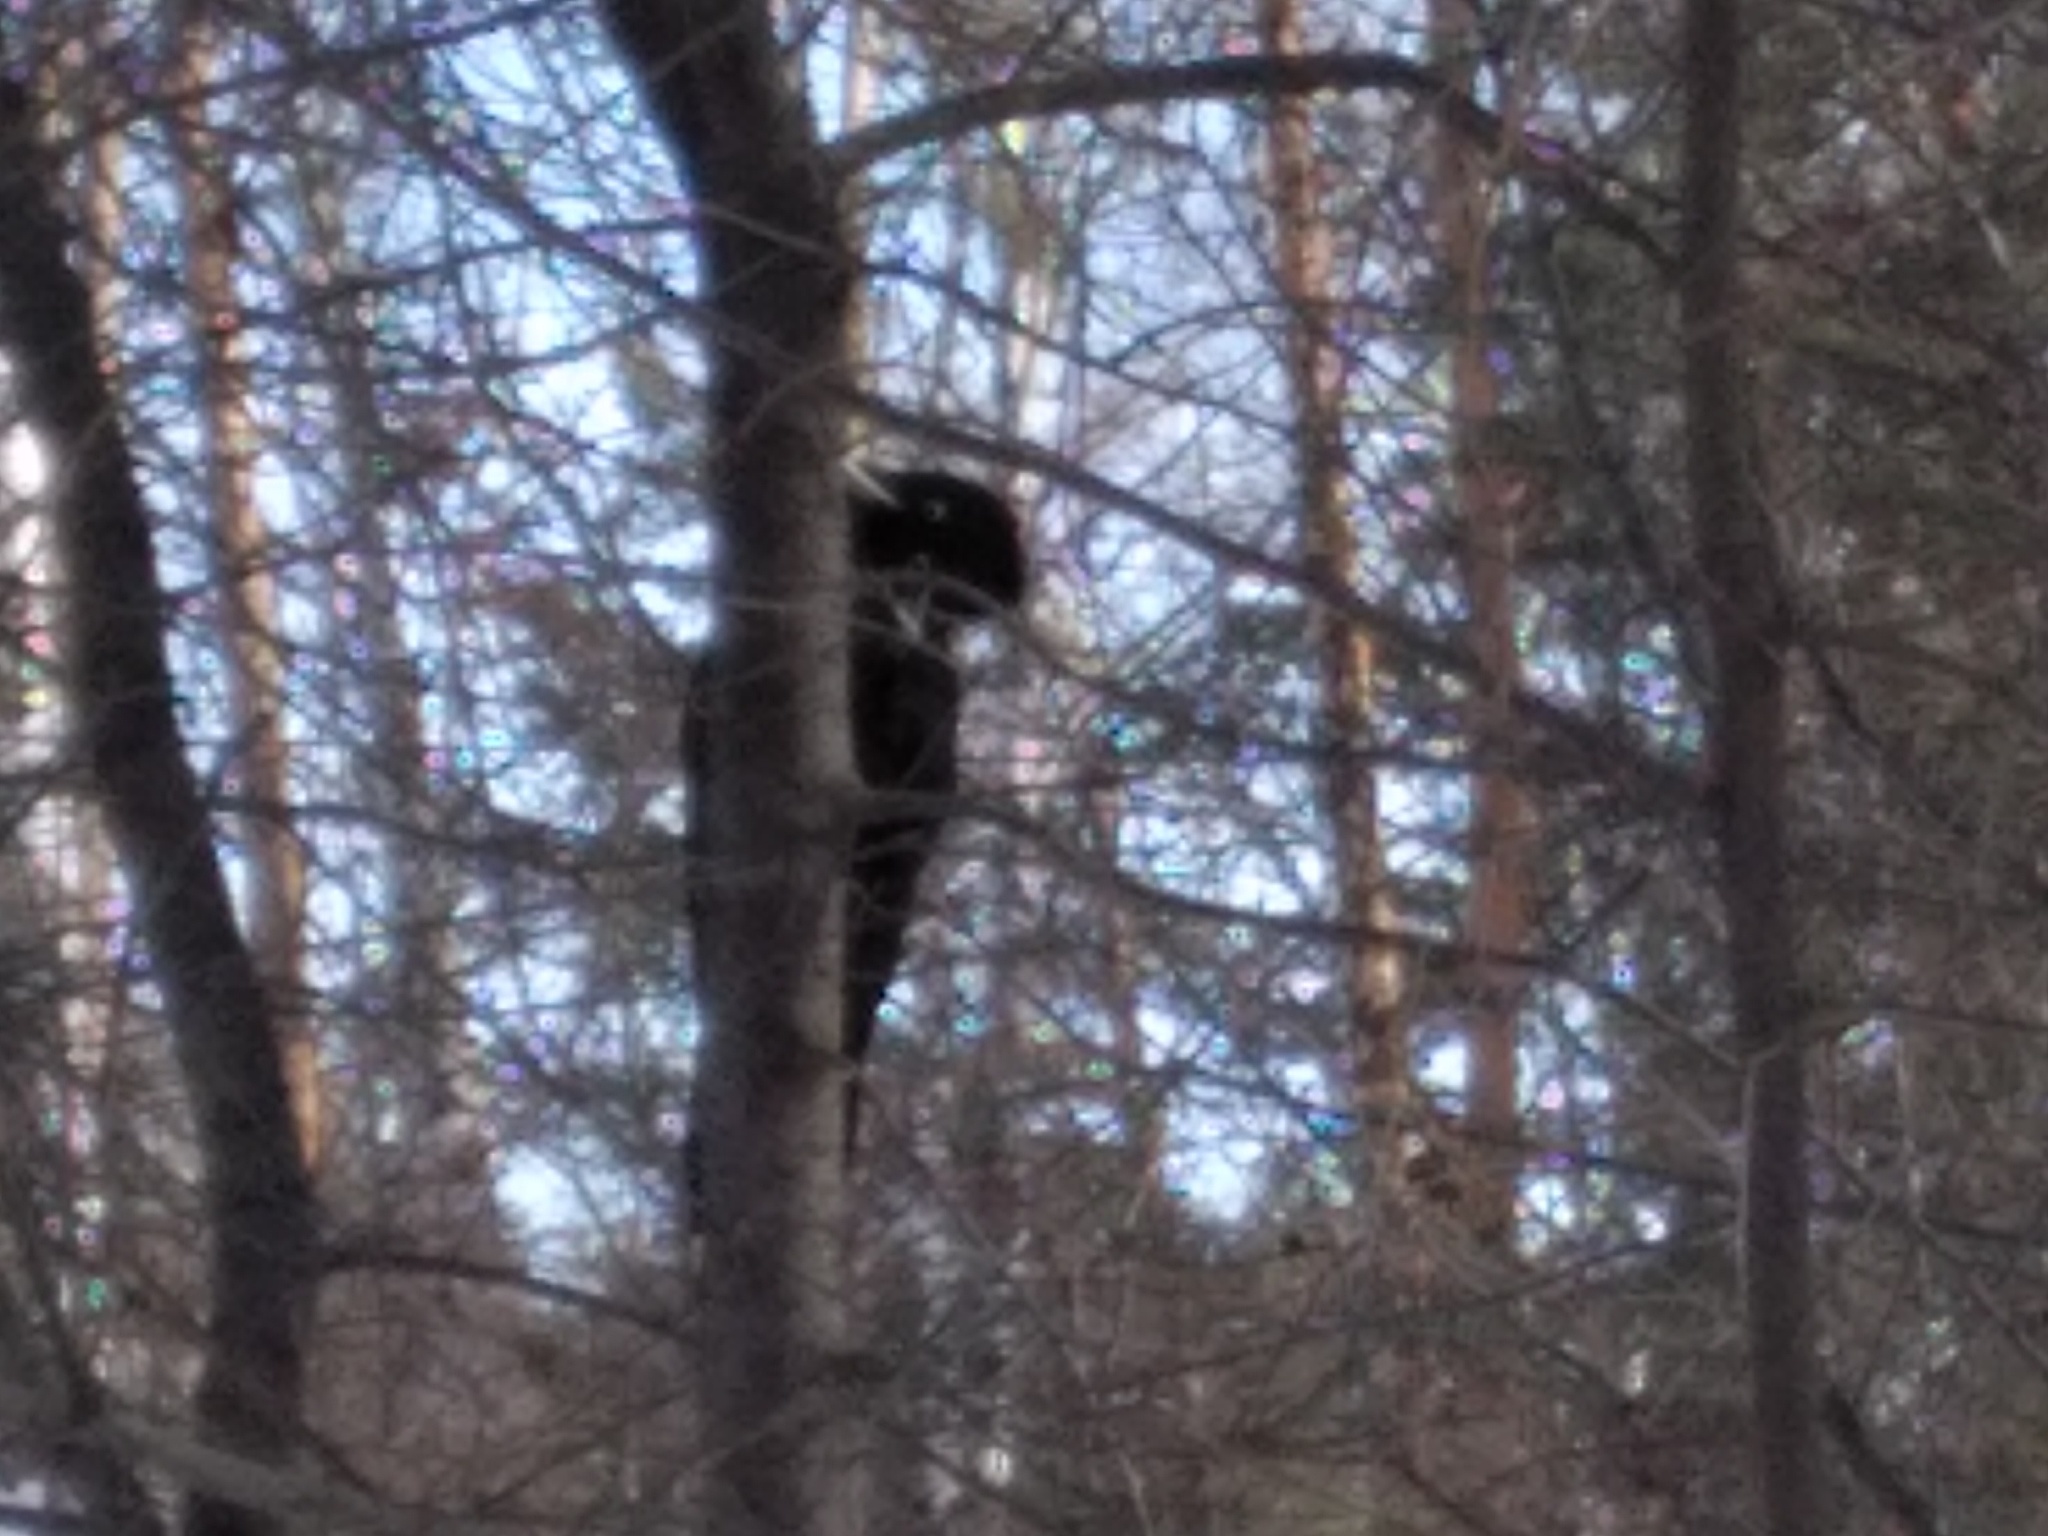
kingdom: Animalia
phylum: Chordata
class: Aves
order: Piciformes
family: Picidae
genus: Dryocopus
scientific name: Dryocopus martius
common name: Black woodpecker
